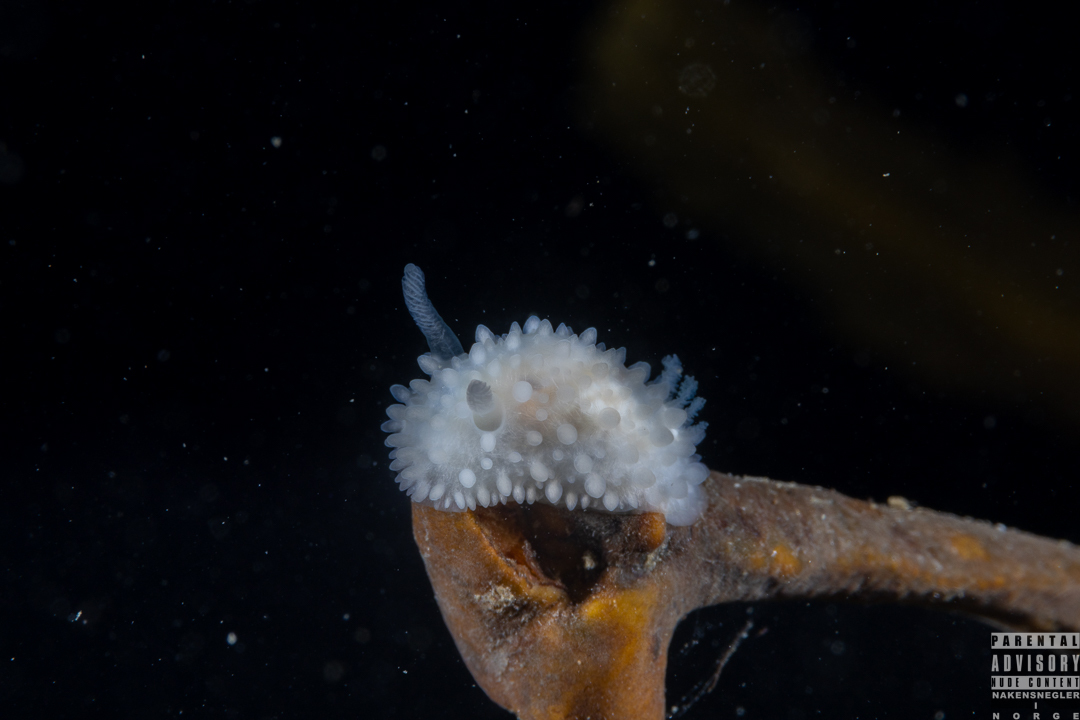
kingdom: Animalia
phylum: Mollusca
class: Gastropoda
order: Nudibranchia
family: Onchidorididae
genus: Adalaria
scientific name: Adalaria proxima
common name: False doris
